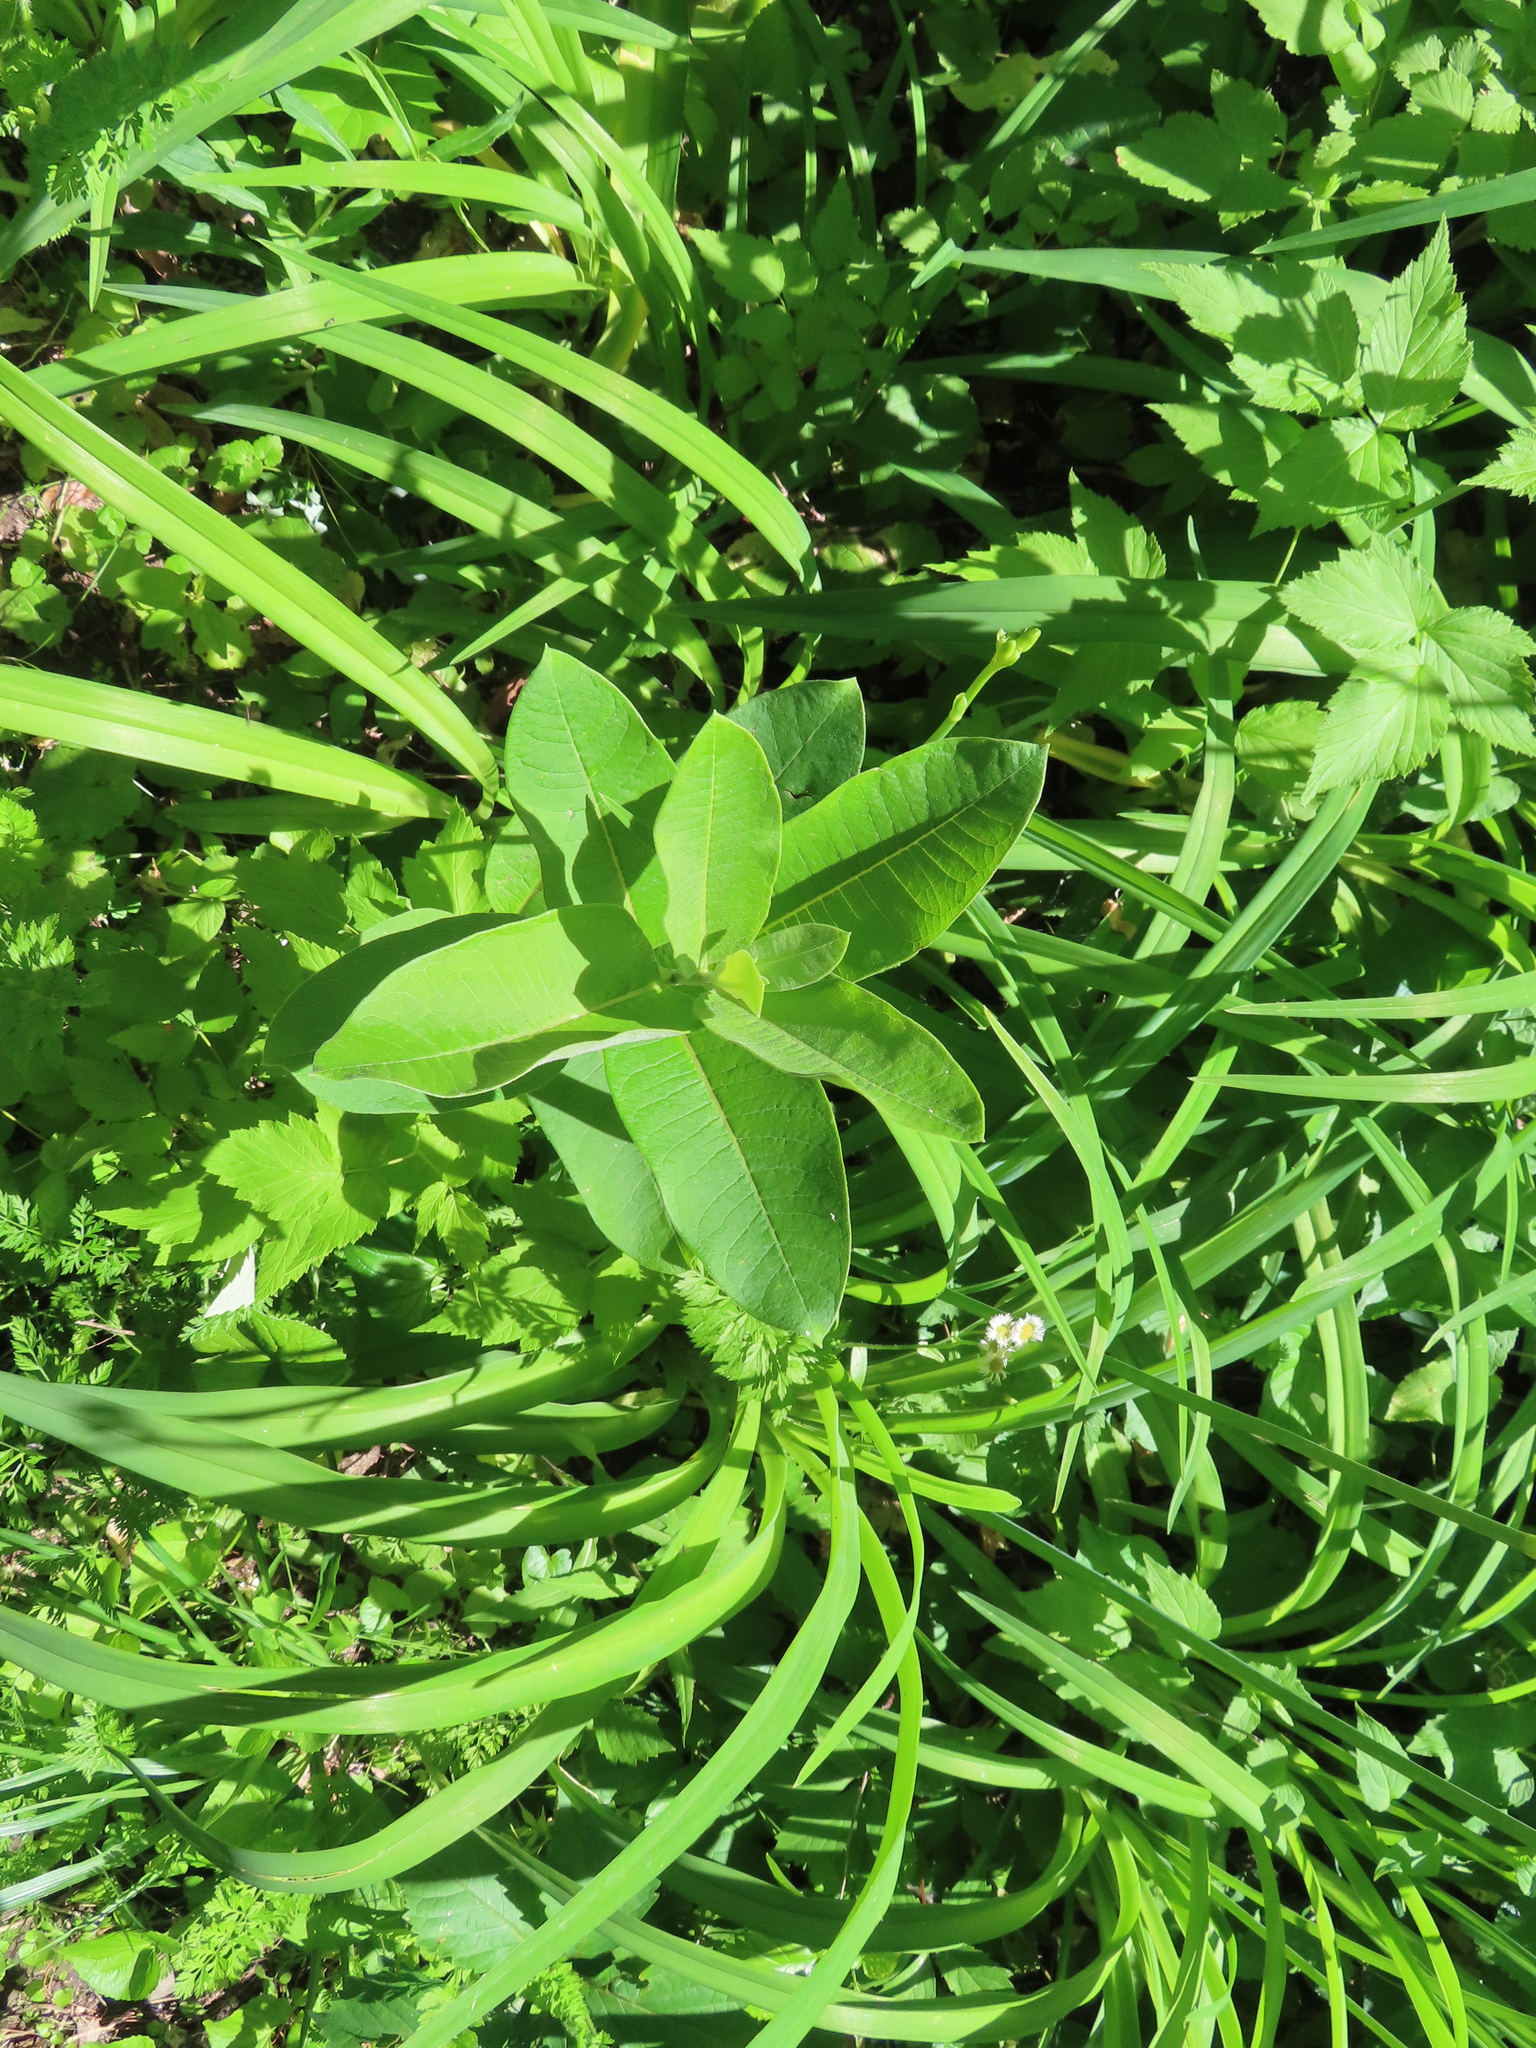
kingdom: Plantae
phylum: Tracheophyta
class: Magnoliopsida
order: Gentianales
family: Apocynaceae
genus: Asclepias
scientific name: Asclepias syriaca
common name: Common milkweed
